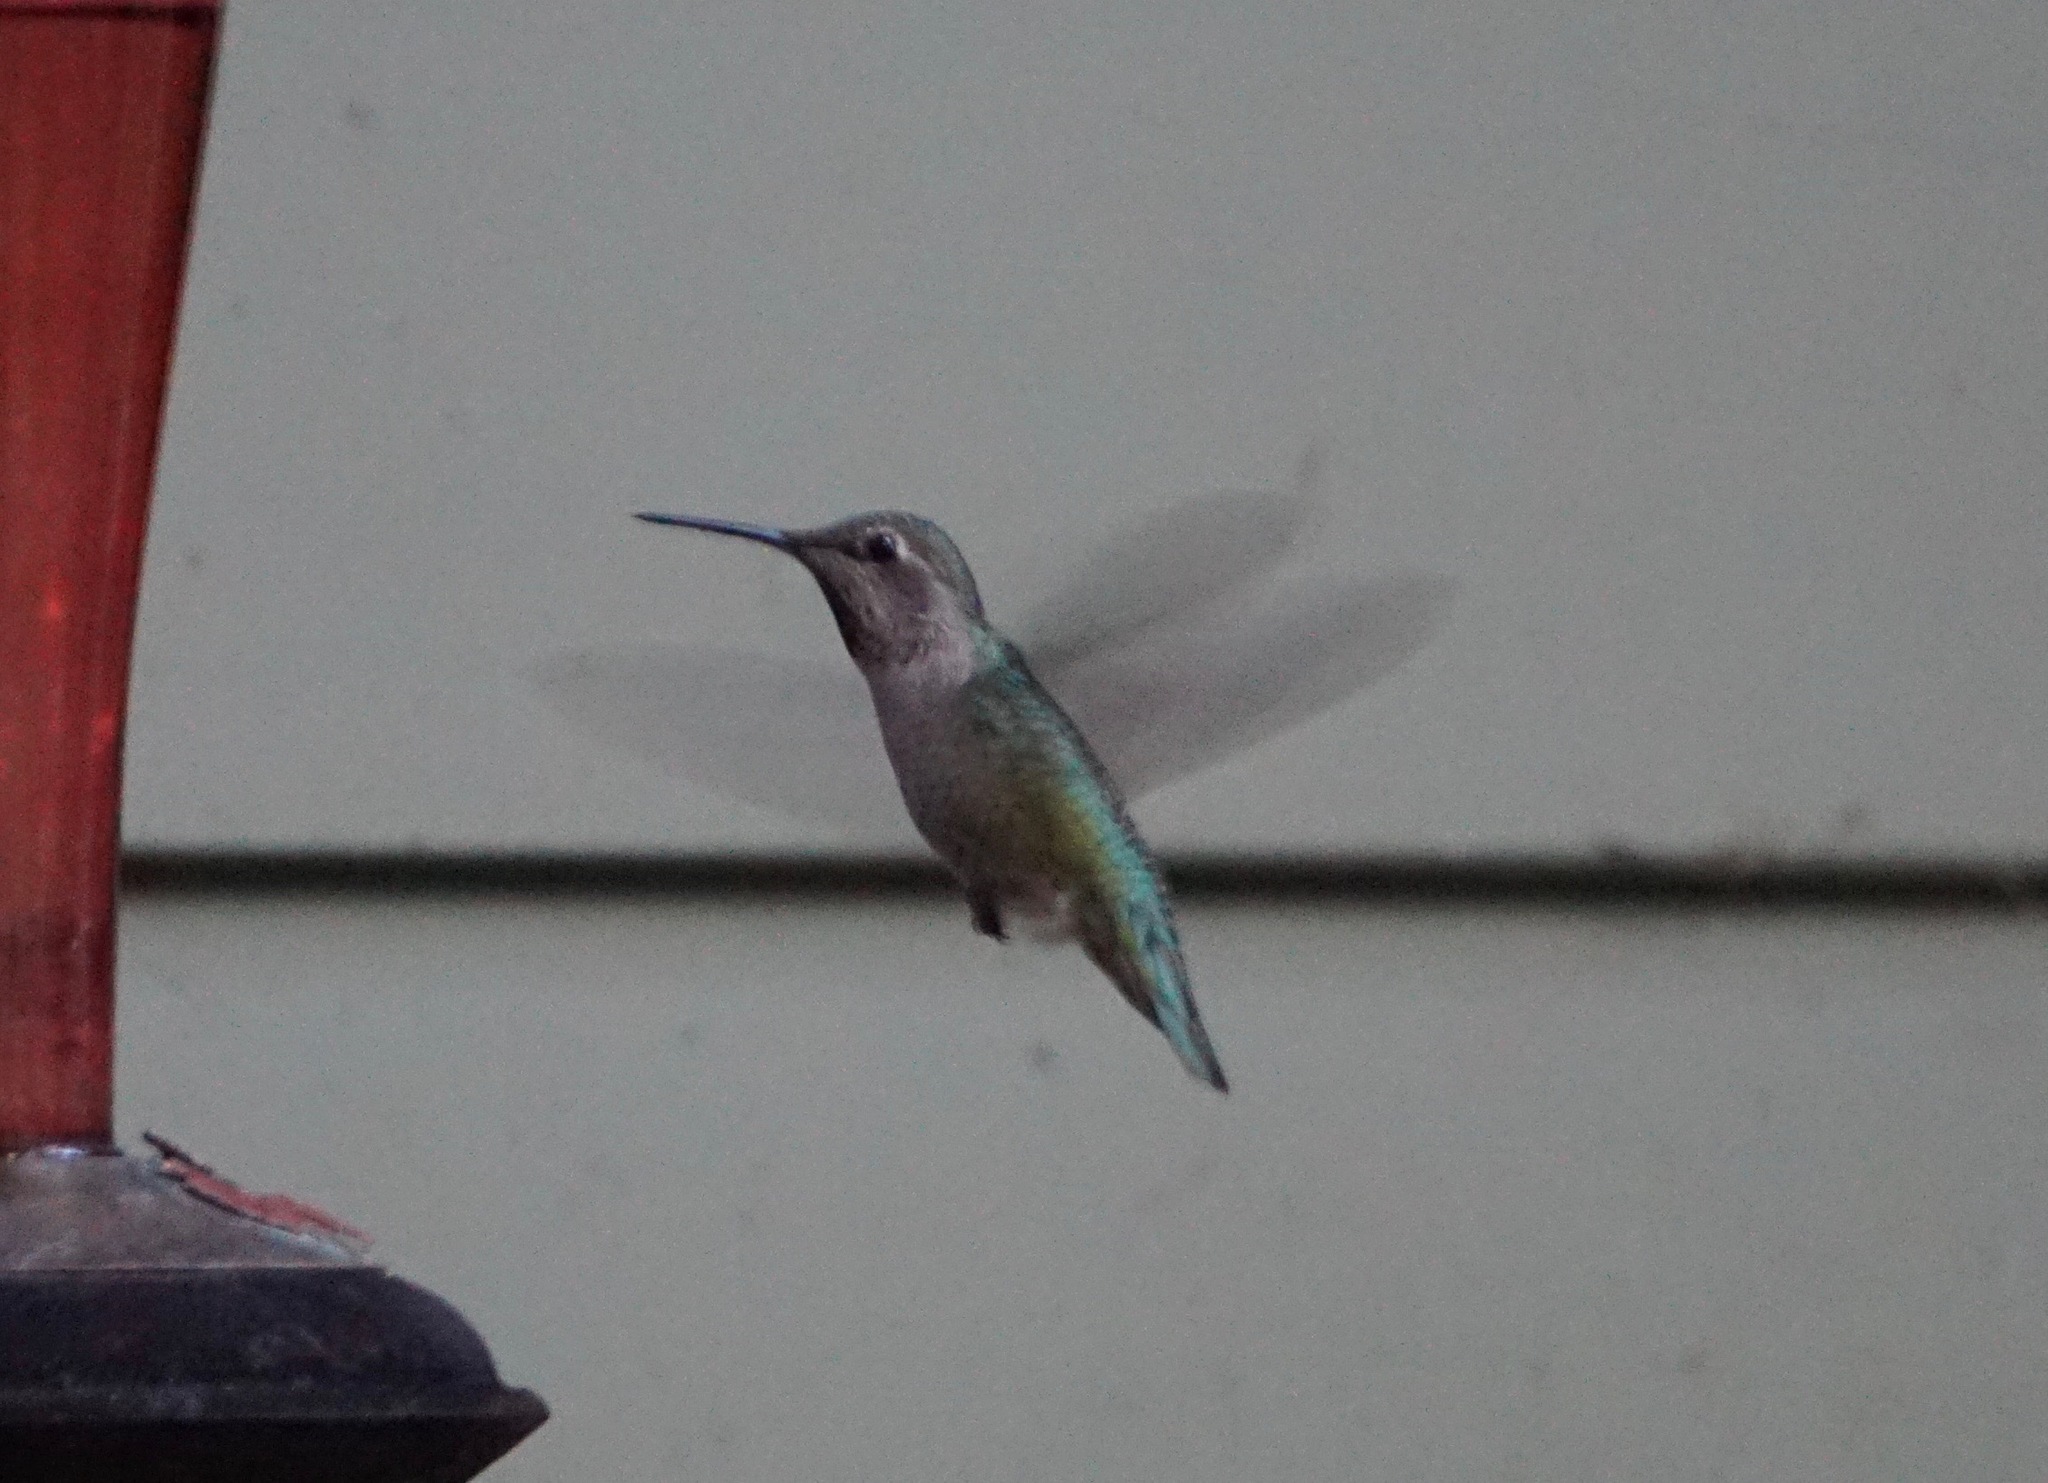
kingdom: Animalia
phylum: Chordata
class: Aves
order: Apodiformes
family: Trochilidae
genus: Calypte
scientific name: Calypte anna
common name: Anna's hummingbird
